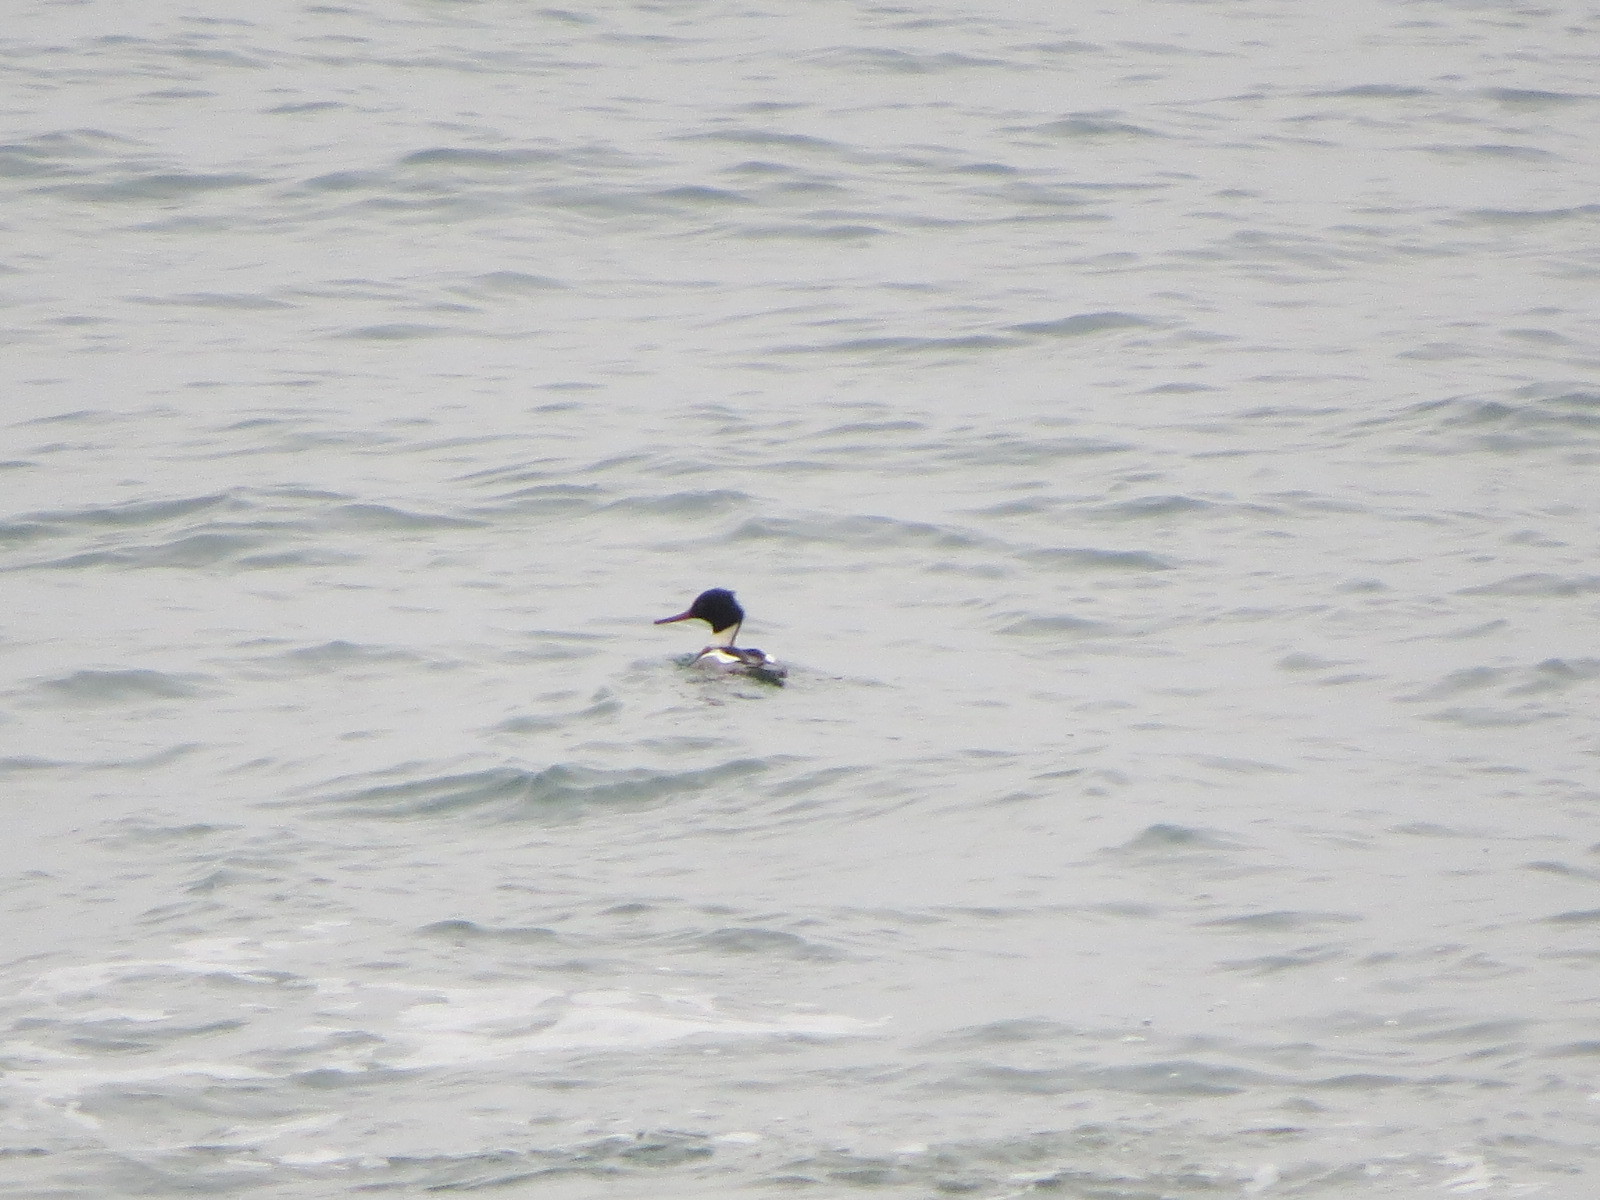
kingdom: Animalia
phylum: Chordata
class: Aves
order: Anseriformes
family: Anatidae
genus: Mergus
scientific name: Mergus serrator
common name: Red-breasted merganser
